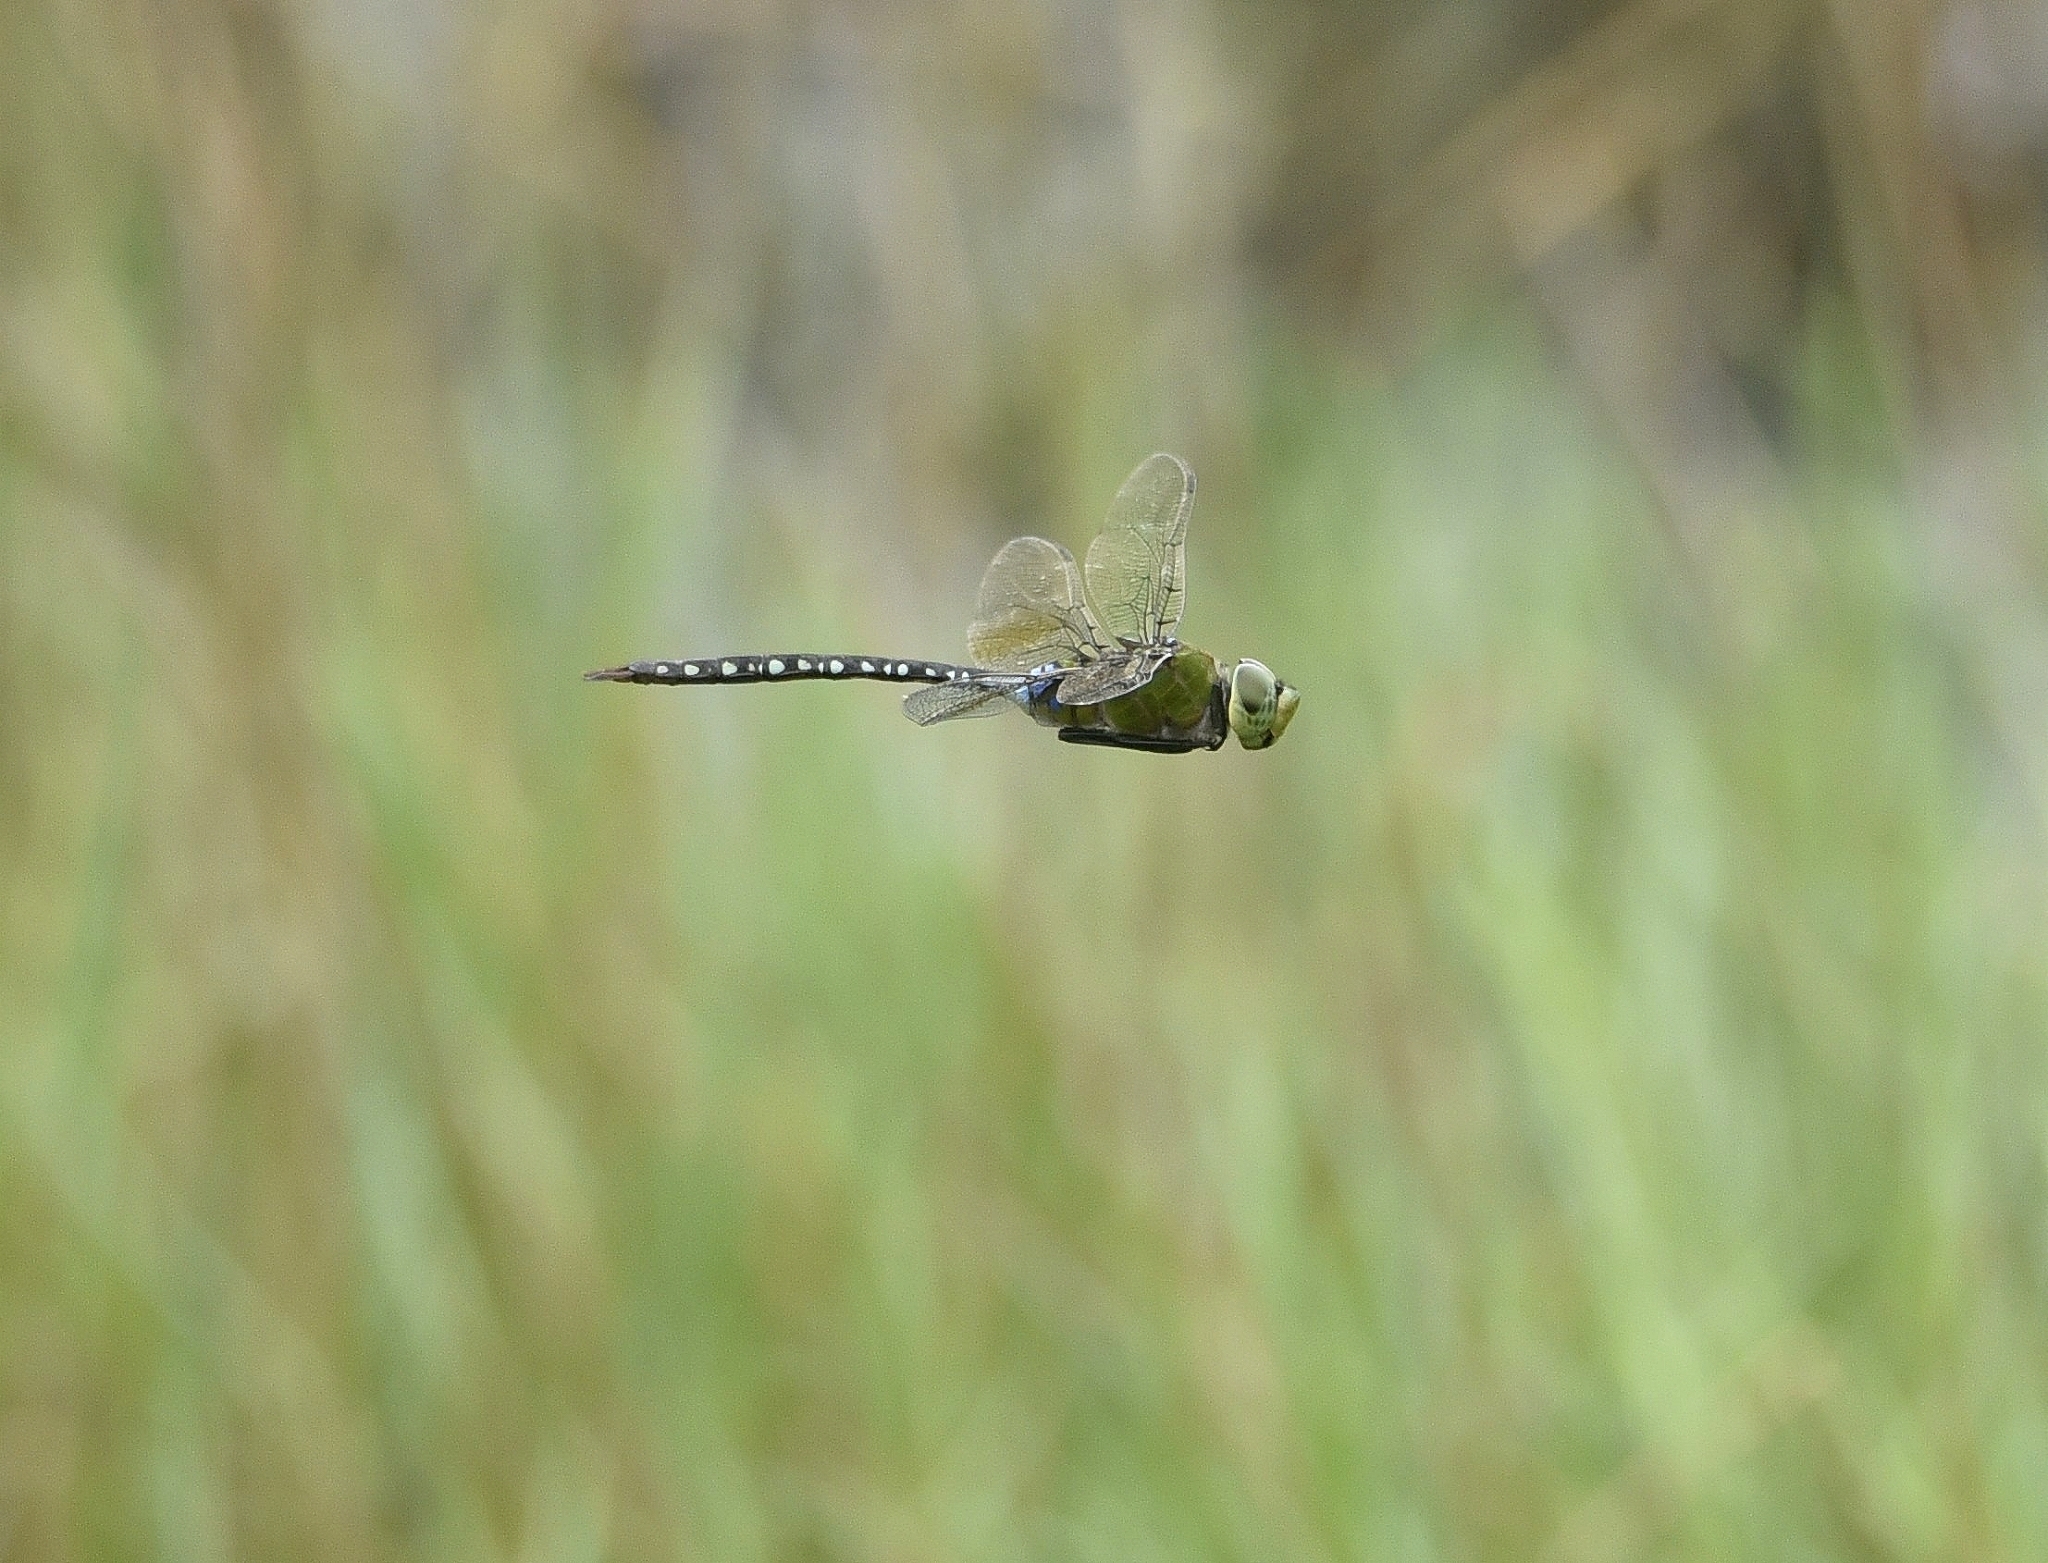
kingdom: Animalia
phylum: Arthropoda
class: Insecta
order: Odonata
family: Aeshnidae
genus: Anax
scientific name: Anax guttatus
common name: Emperor
